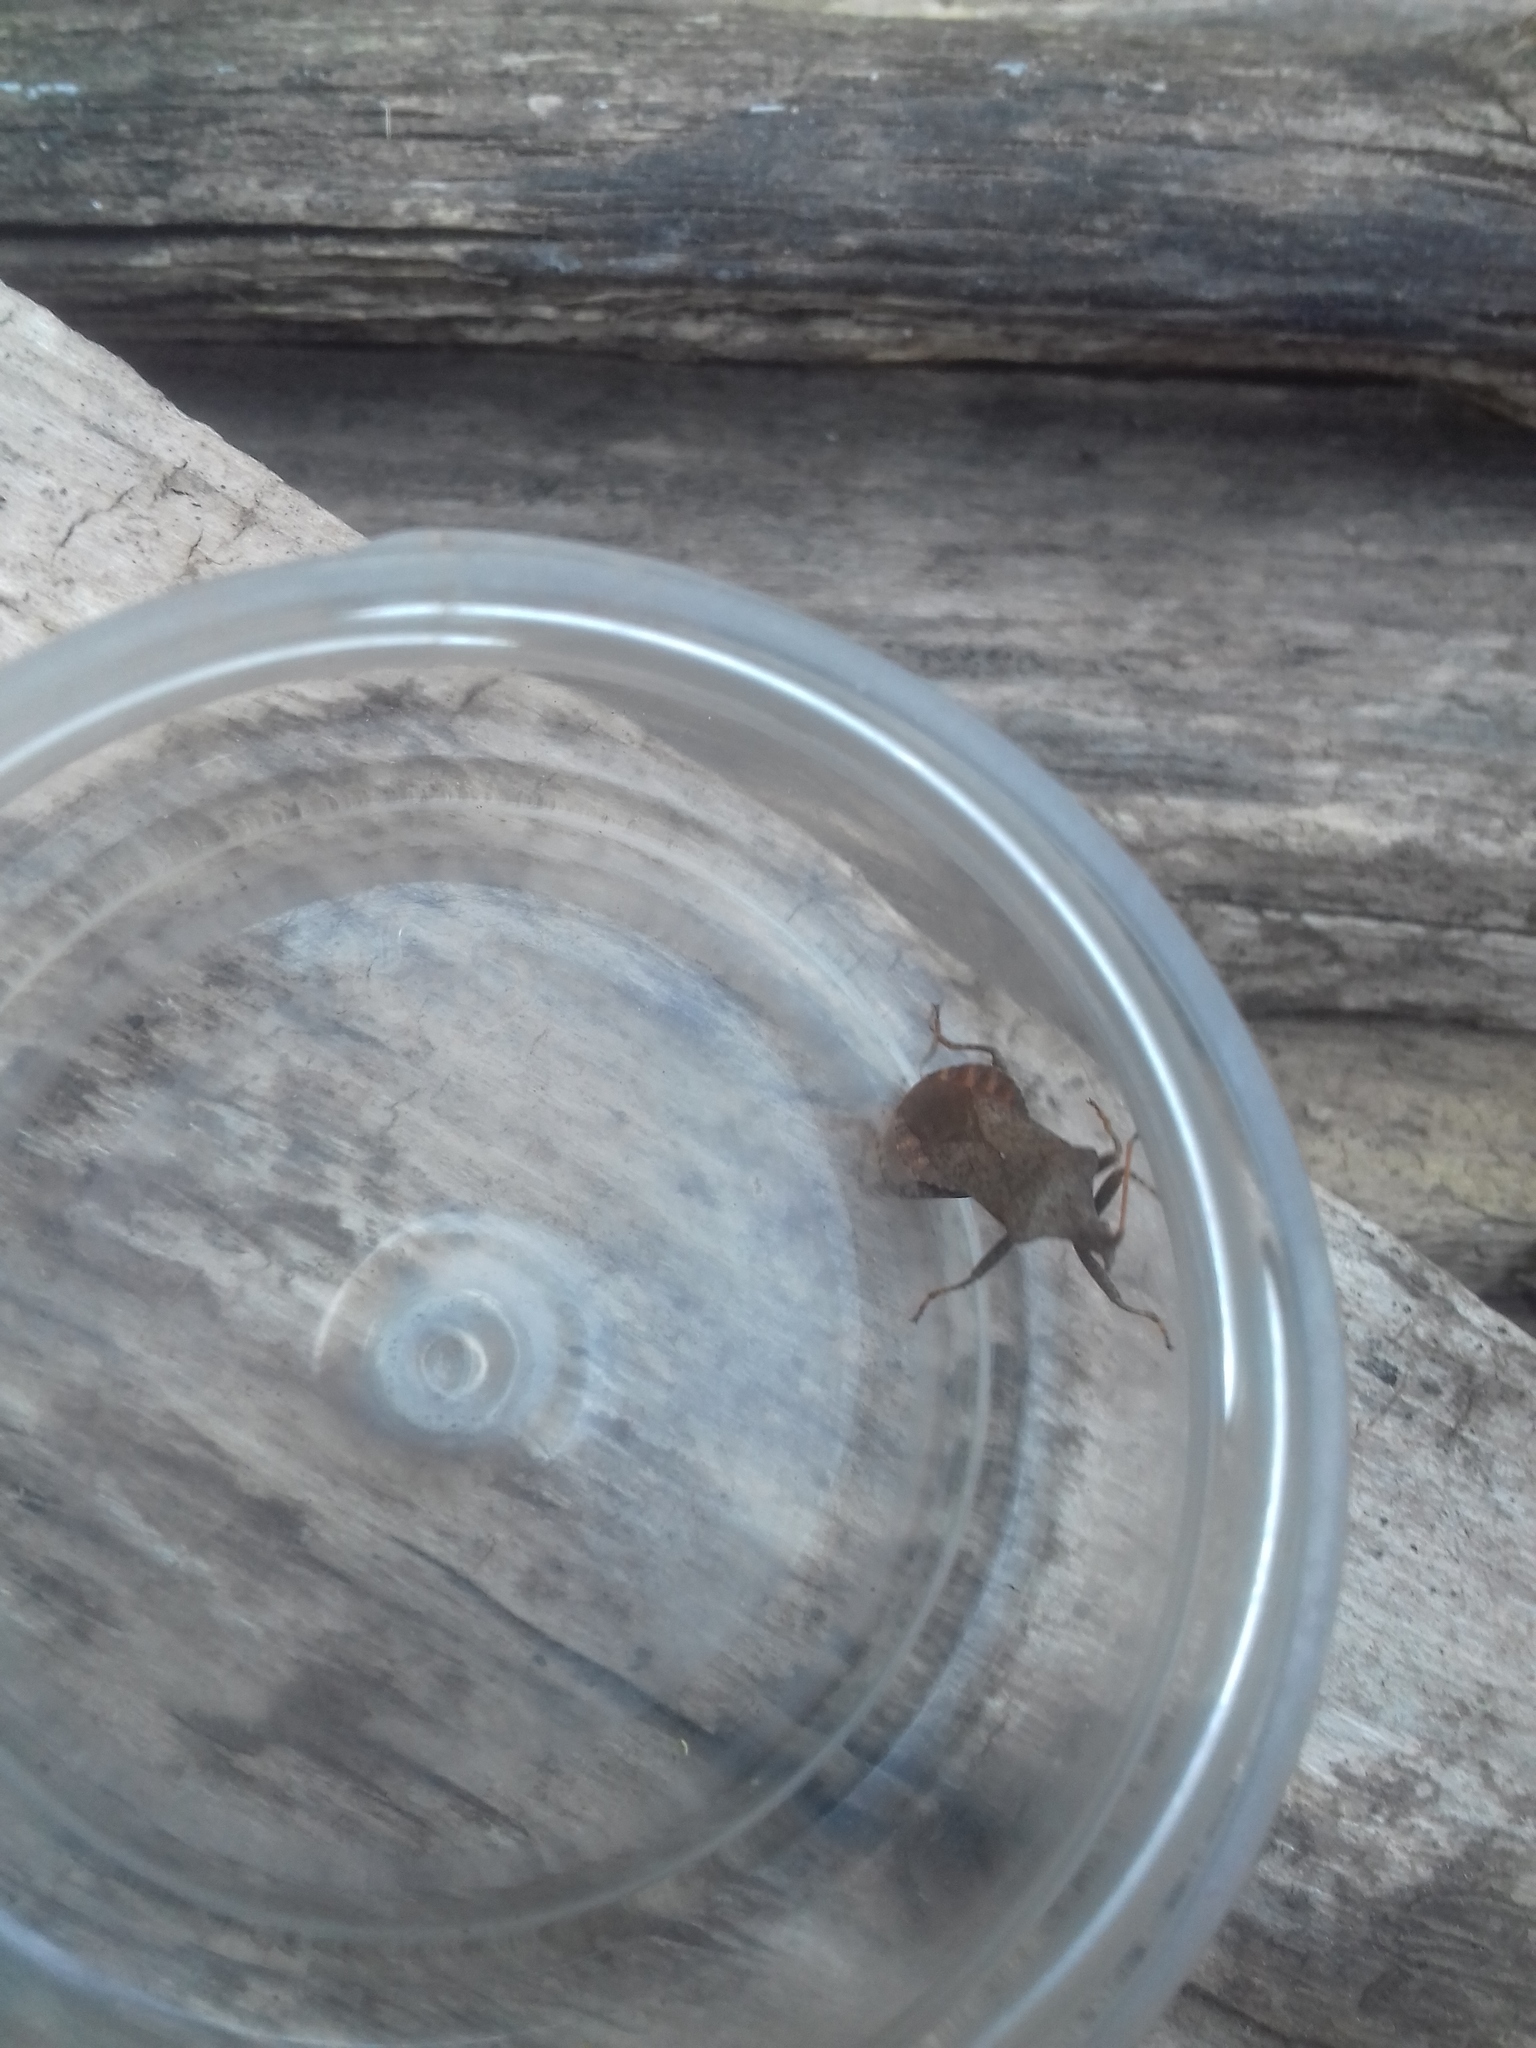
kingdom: Animalia
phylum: Arthropoda
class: Insecta
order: Hemiptera
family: Coreidae
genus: Coreus
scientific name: Coreus marginatus
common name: Dock bug
